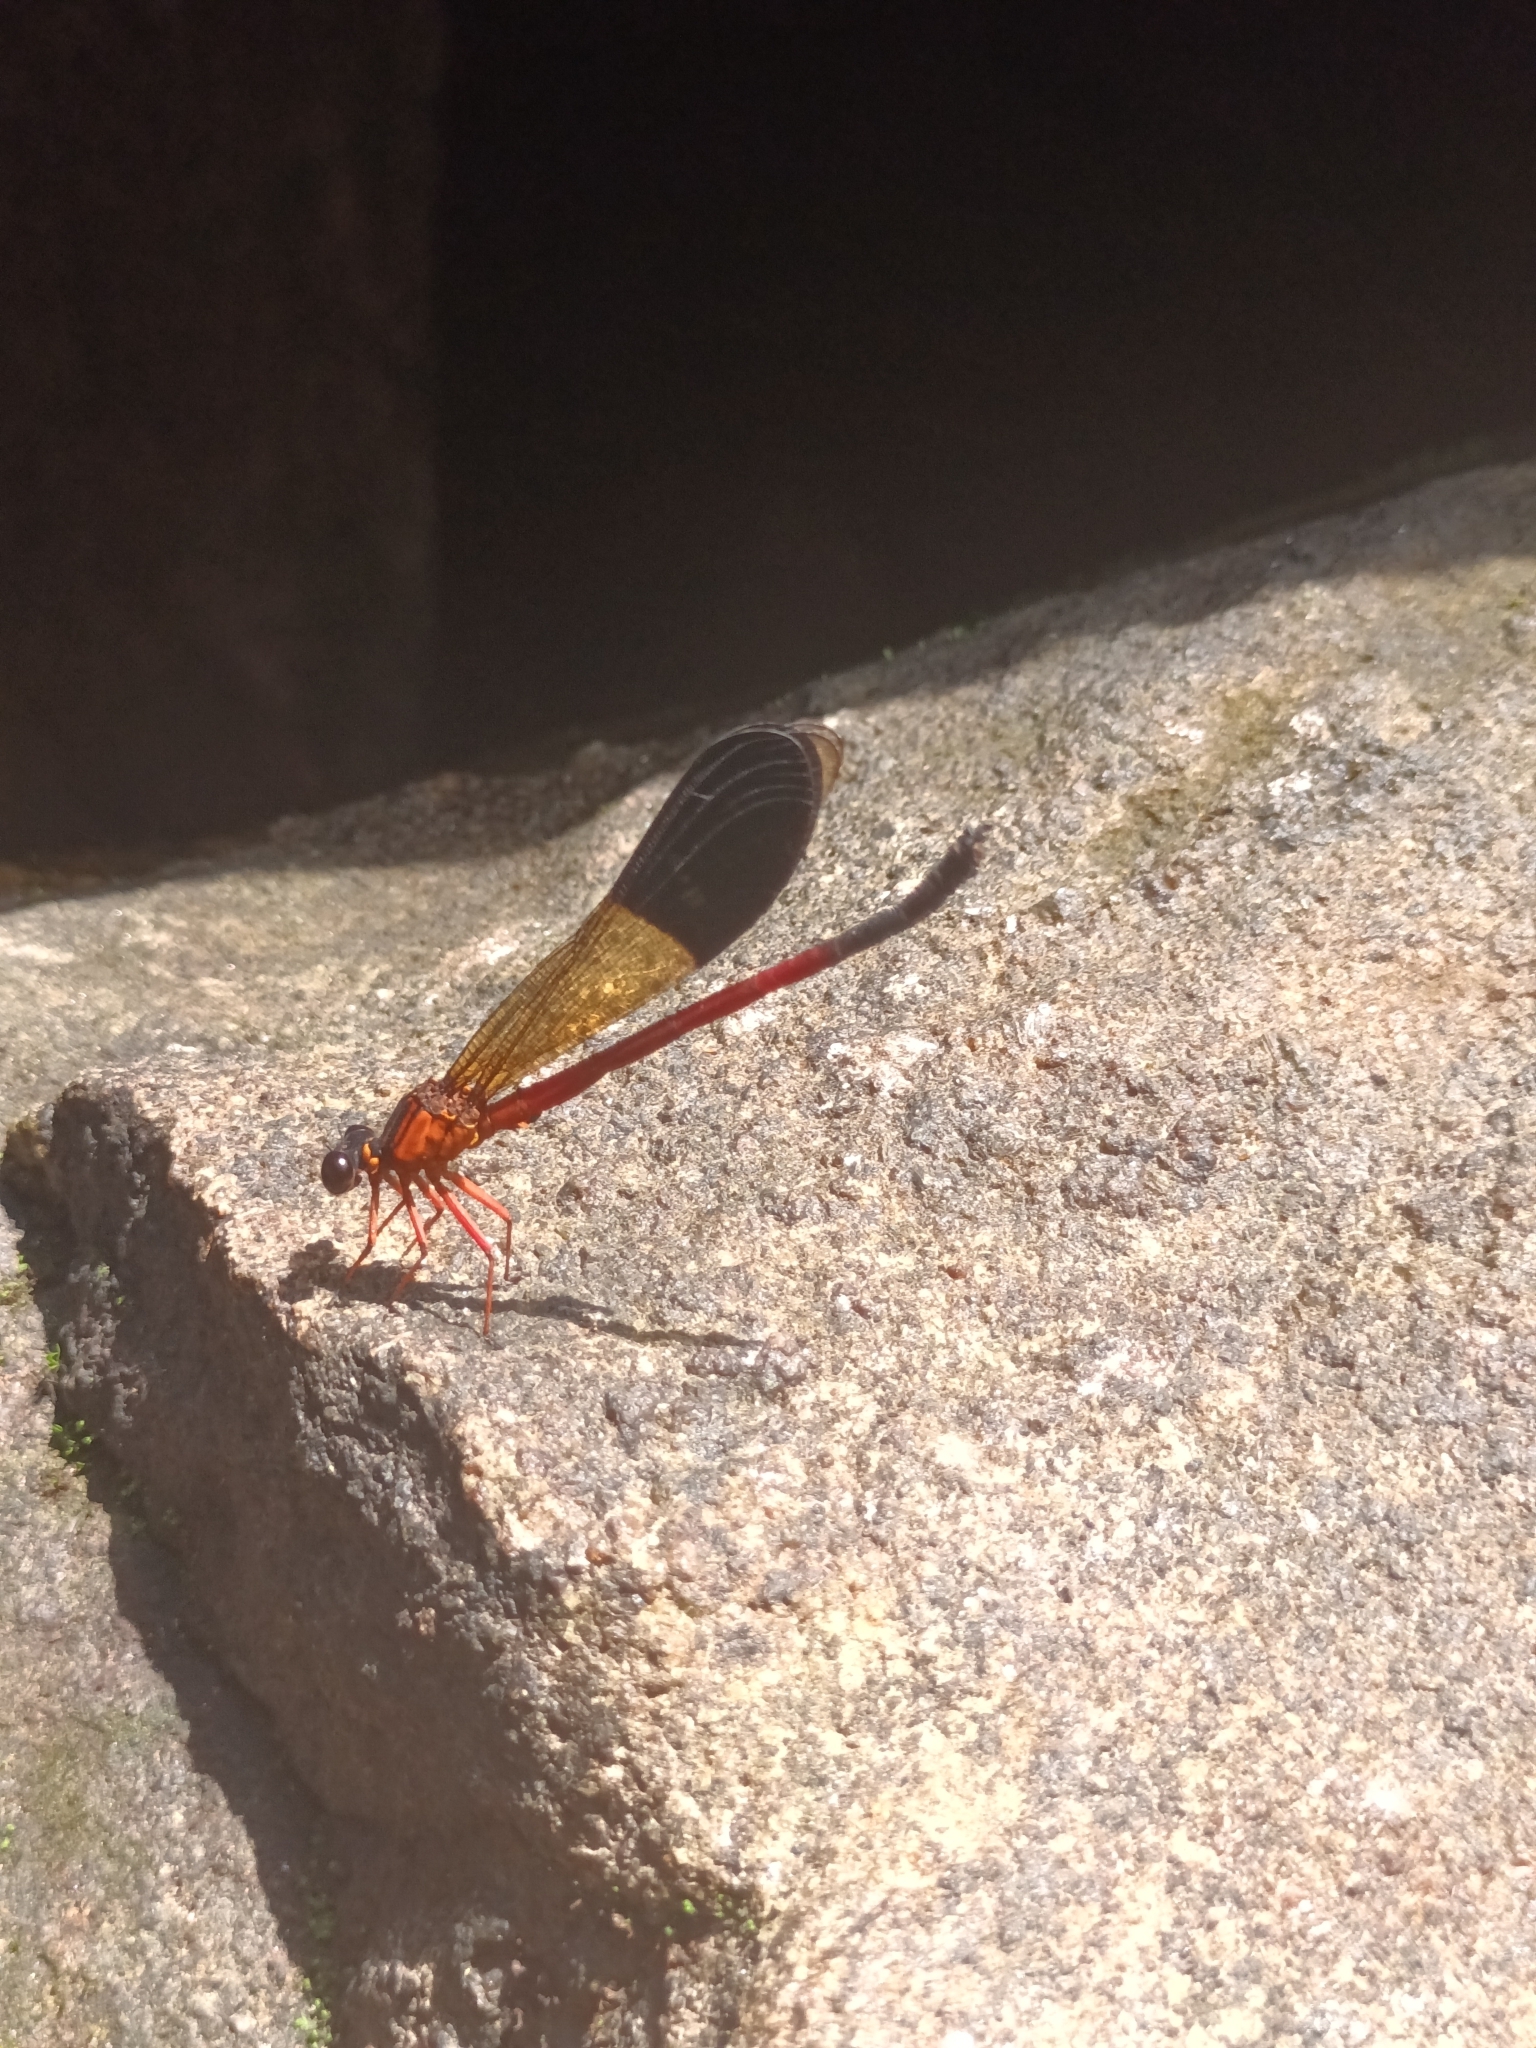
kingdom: Animalia
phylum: Arthropoda
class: Insecta
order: Odonata
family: Euphaeidae
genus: Euphaea
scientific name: Euphaea cardinalis
